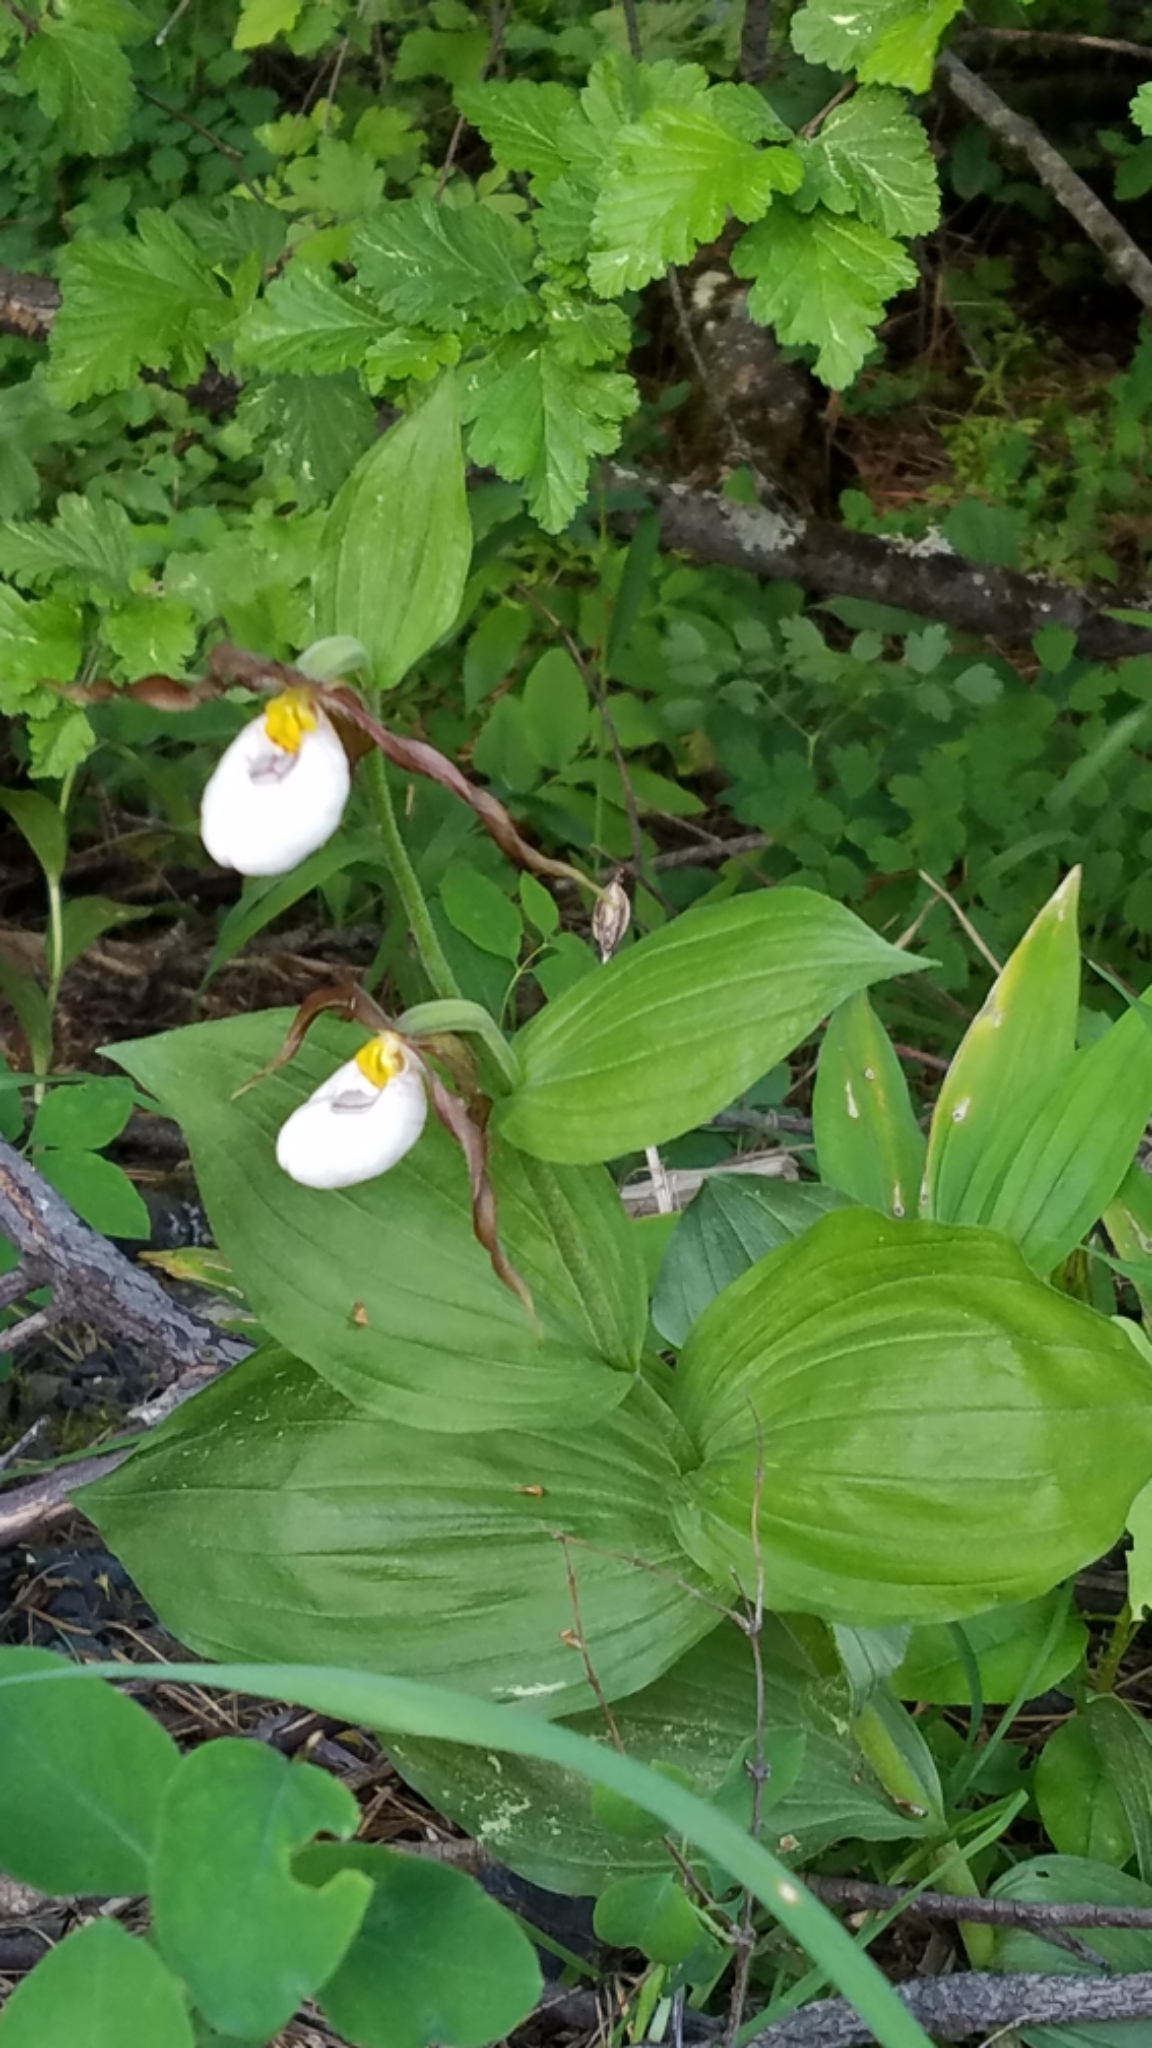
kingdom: Plantae
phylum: Tracheophyta
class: Liliopsida
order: Asparagales
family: Orchidaceae
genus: Cypripedium
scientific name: Cypripedium montanum
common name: Mountain lady's-slipper
